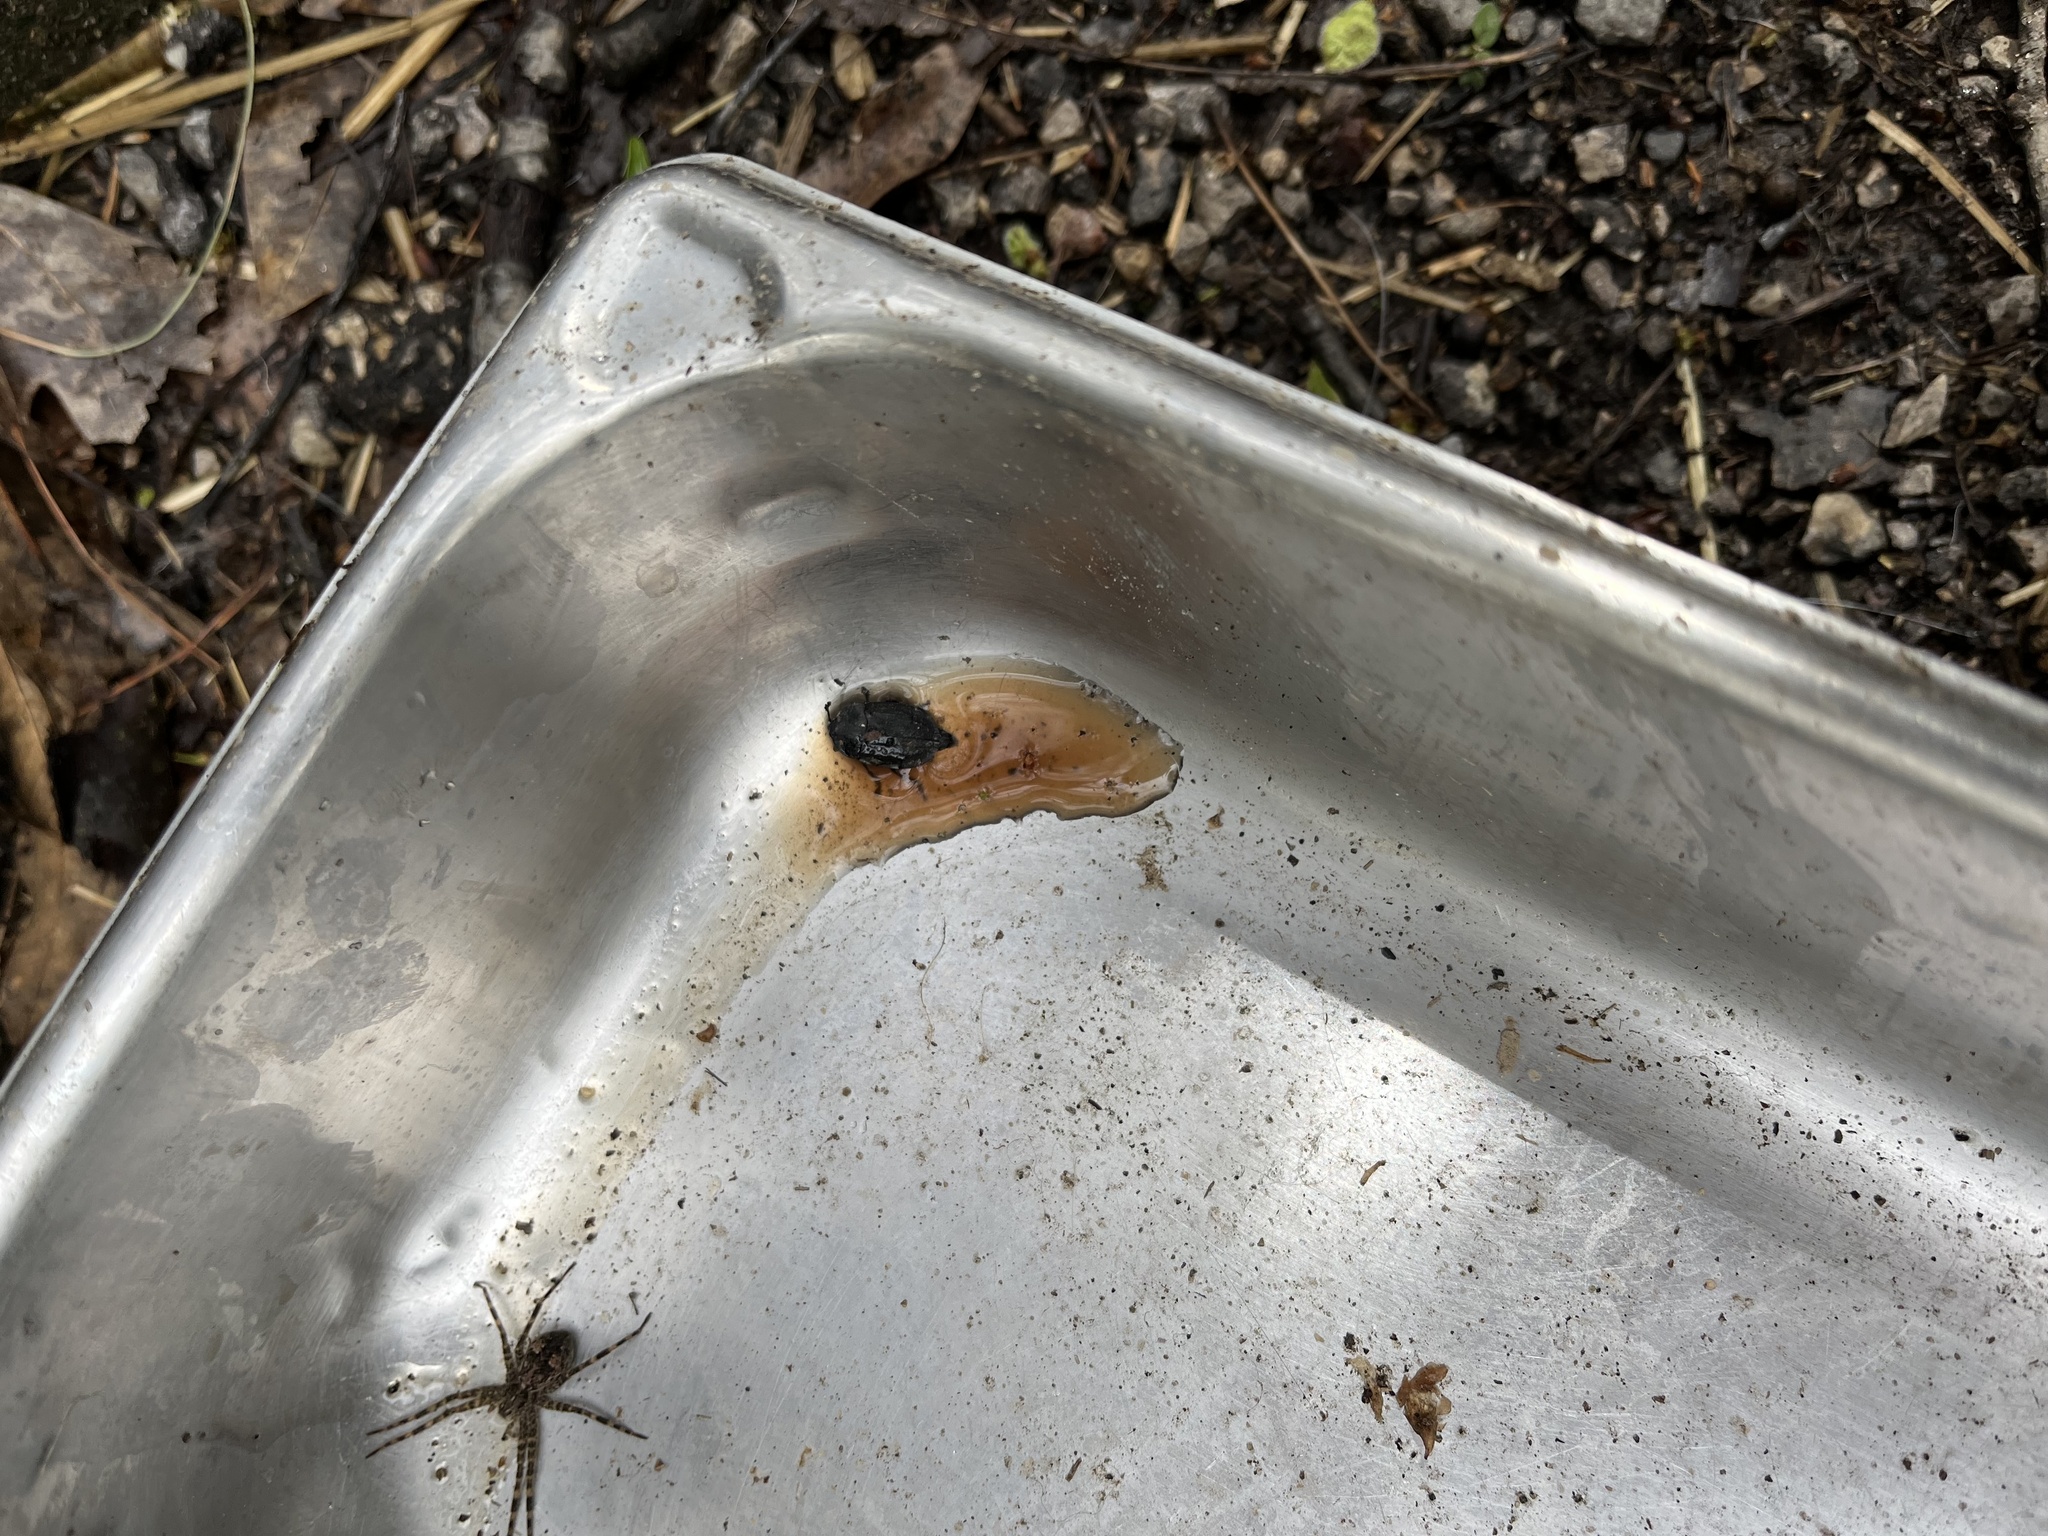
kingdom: Animalia
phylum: Arthropoda
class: Insecta
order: Coleoptera
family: Staphylinidae
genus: Oiceoptoma
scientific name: Oiceoptoma inaequale
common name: Ridged carrion beetle
